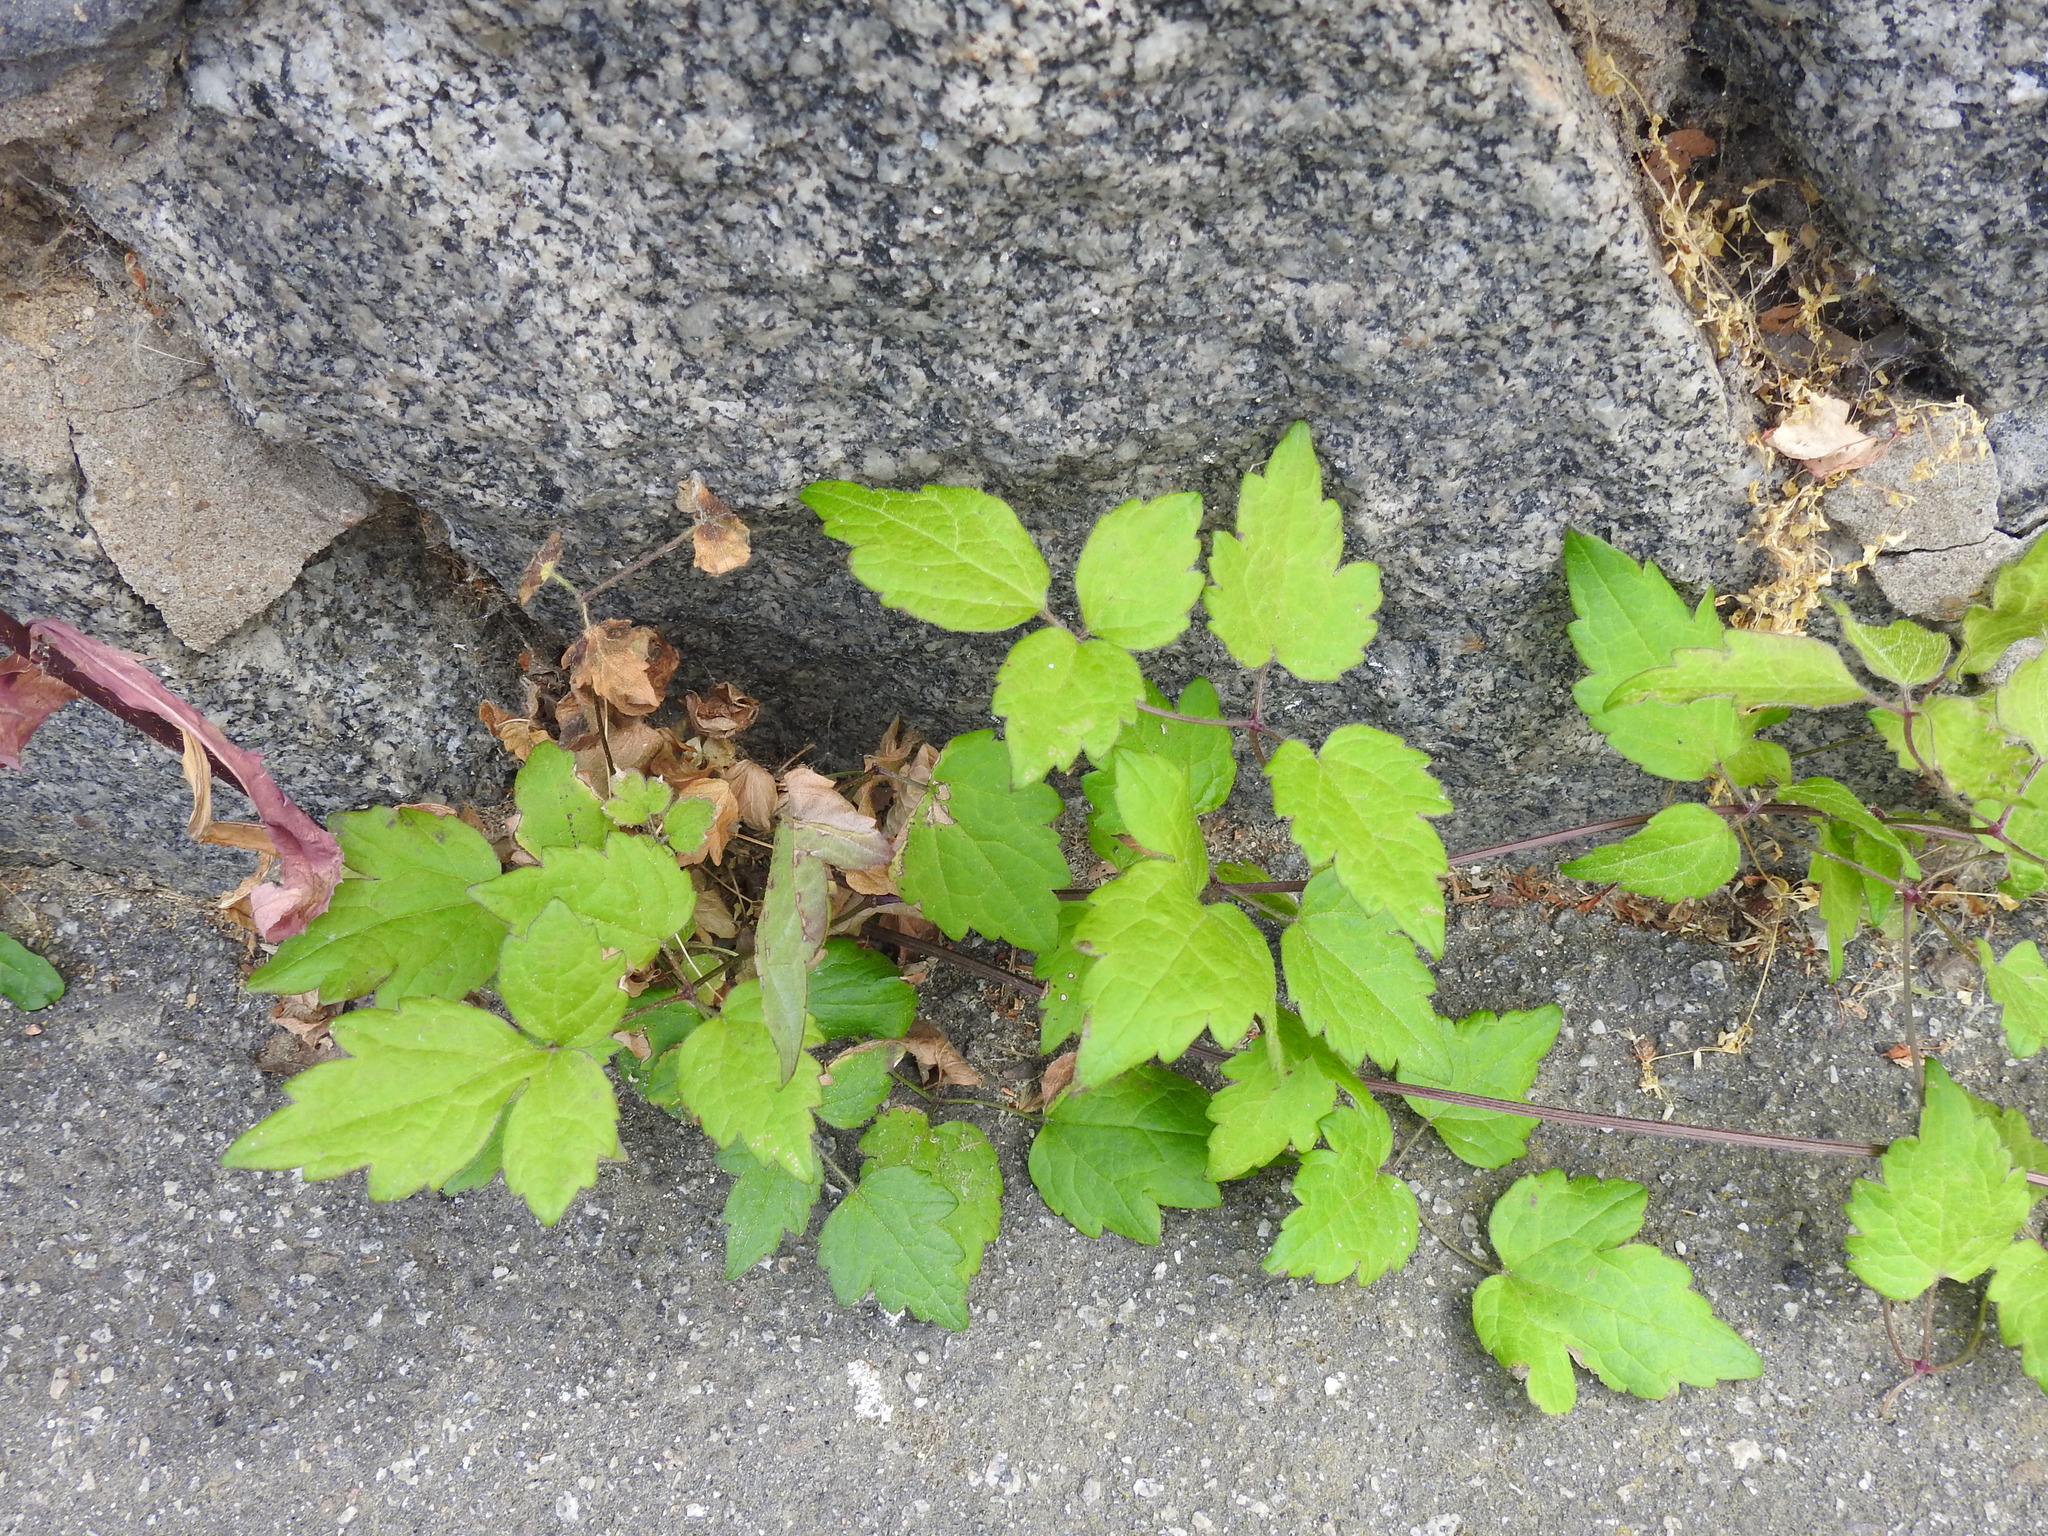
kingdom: Plantae
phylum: Tracheophyta
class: Magnoliopsida
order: Ranunculales
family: Ranunculaceae
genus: Clematis
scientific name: Clematis vitalba
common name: Evergreen clematis
